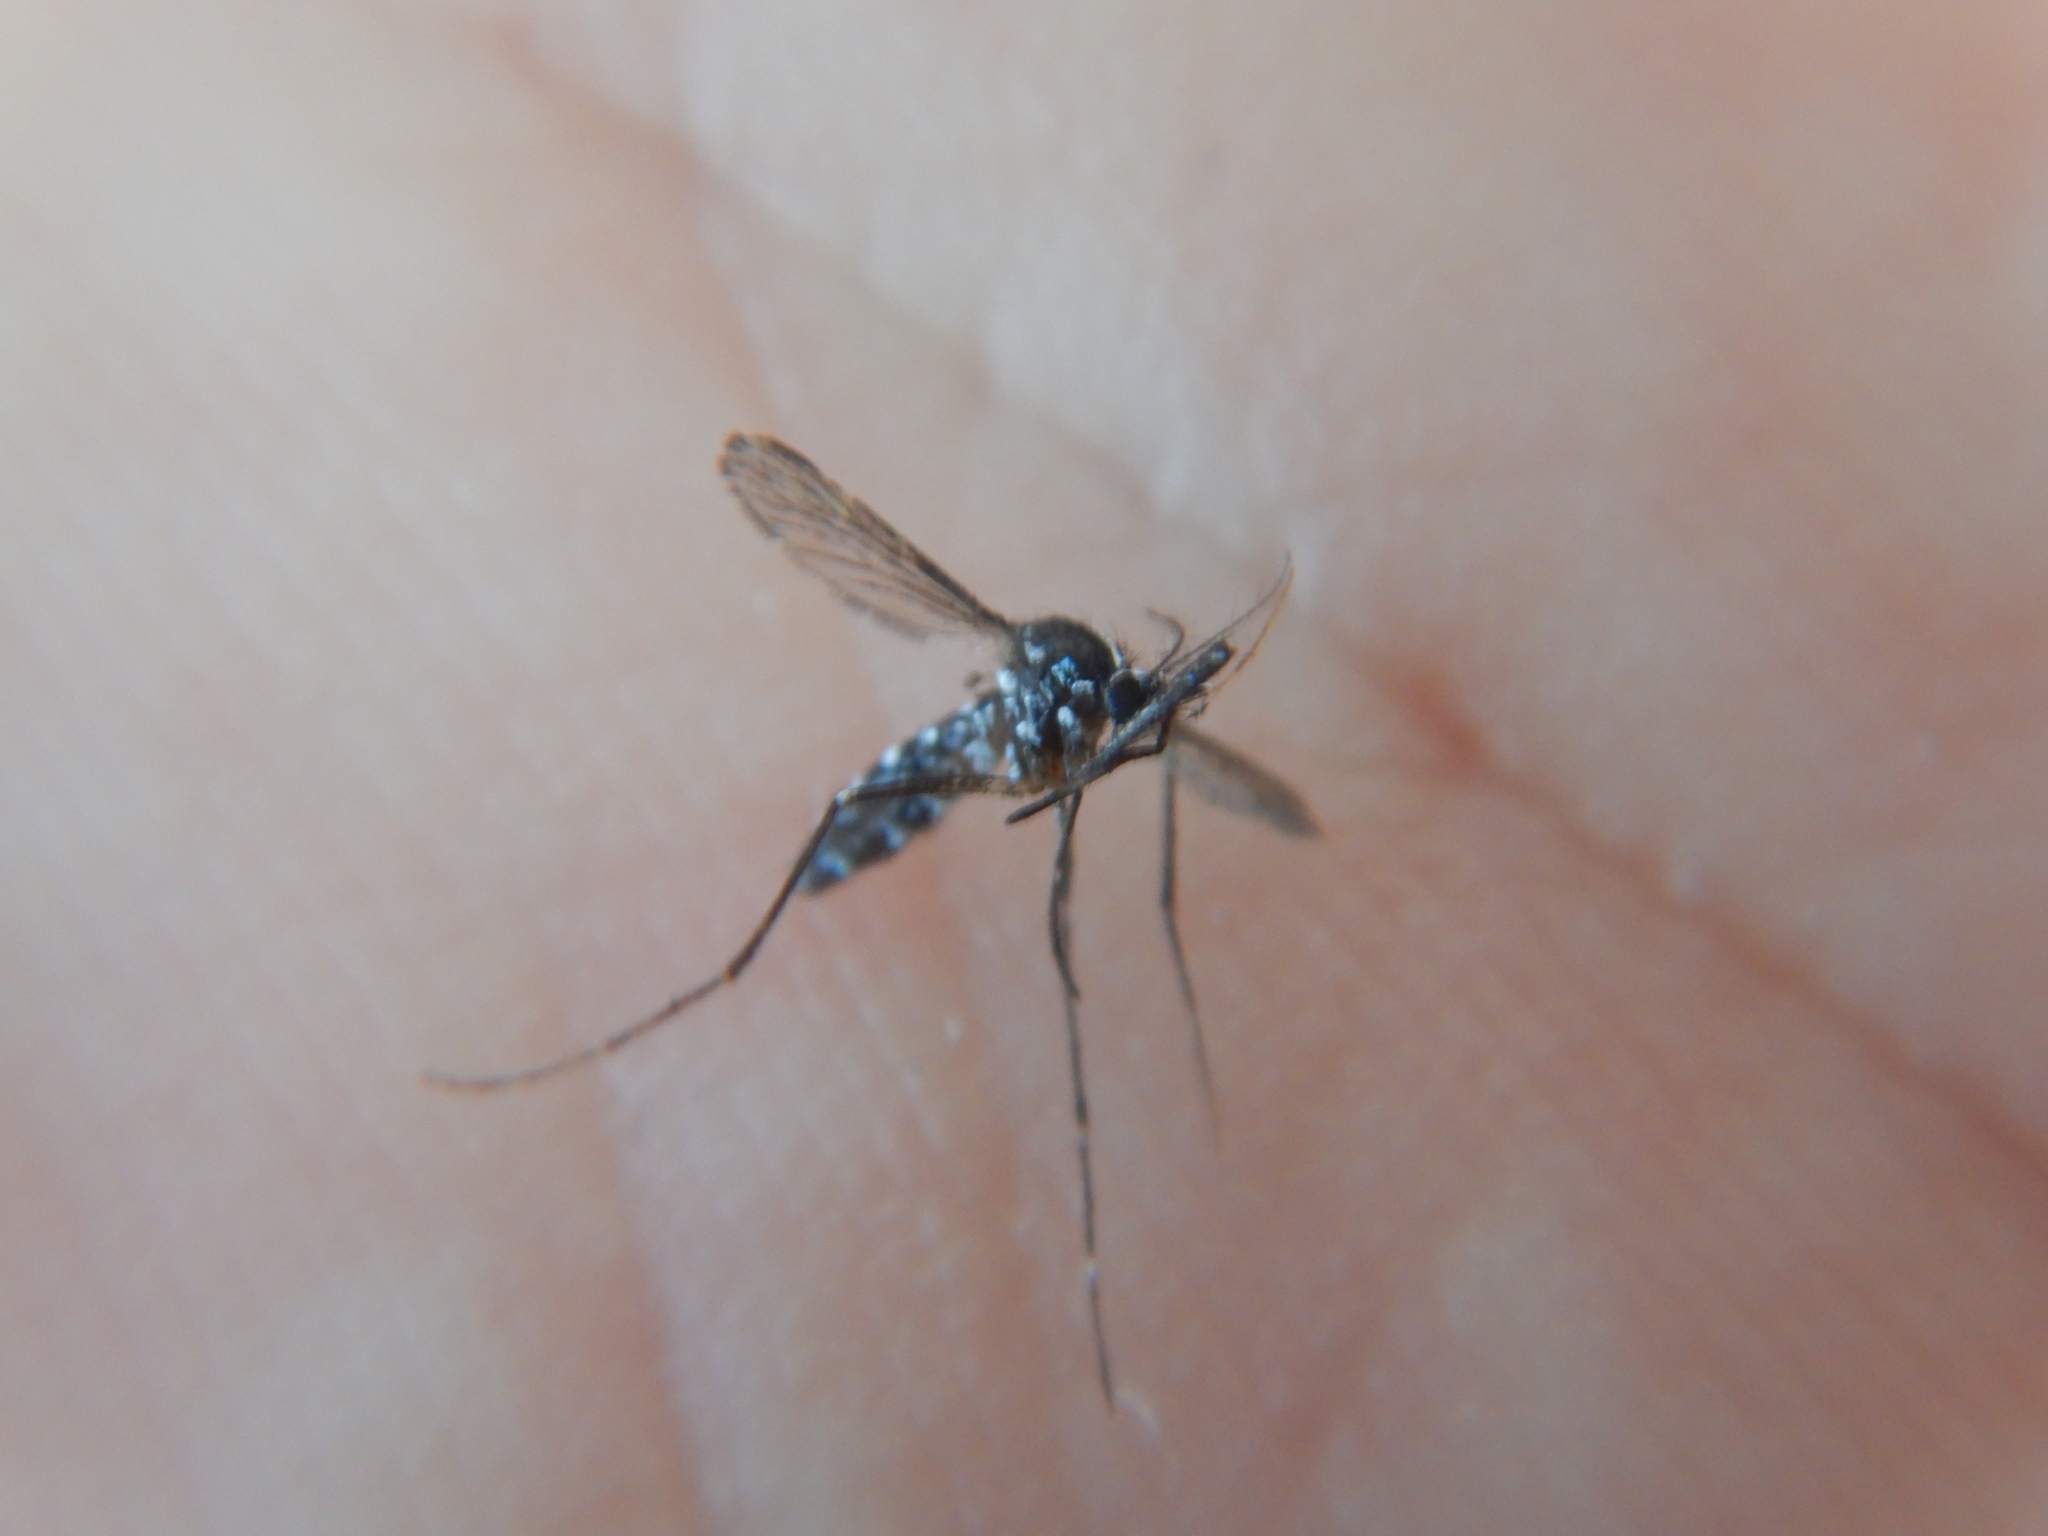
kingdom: Animalia
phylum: Arthropoda
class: Insecta
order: Diptera
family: Culicidae
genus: Aedes
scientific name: Aedes albopictus
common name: Tiger mosquito
